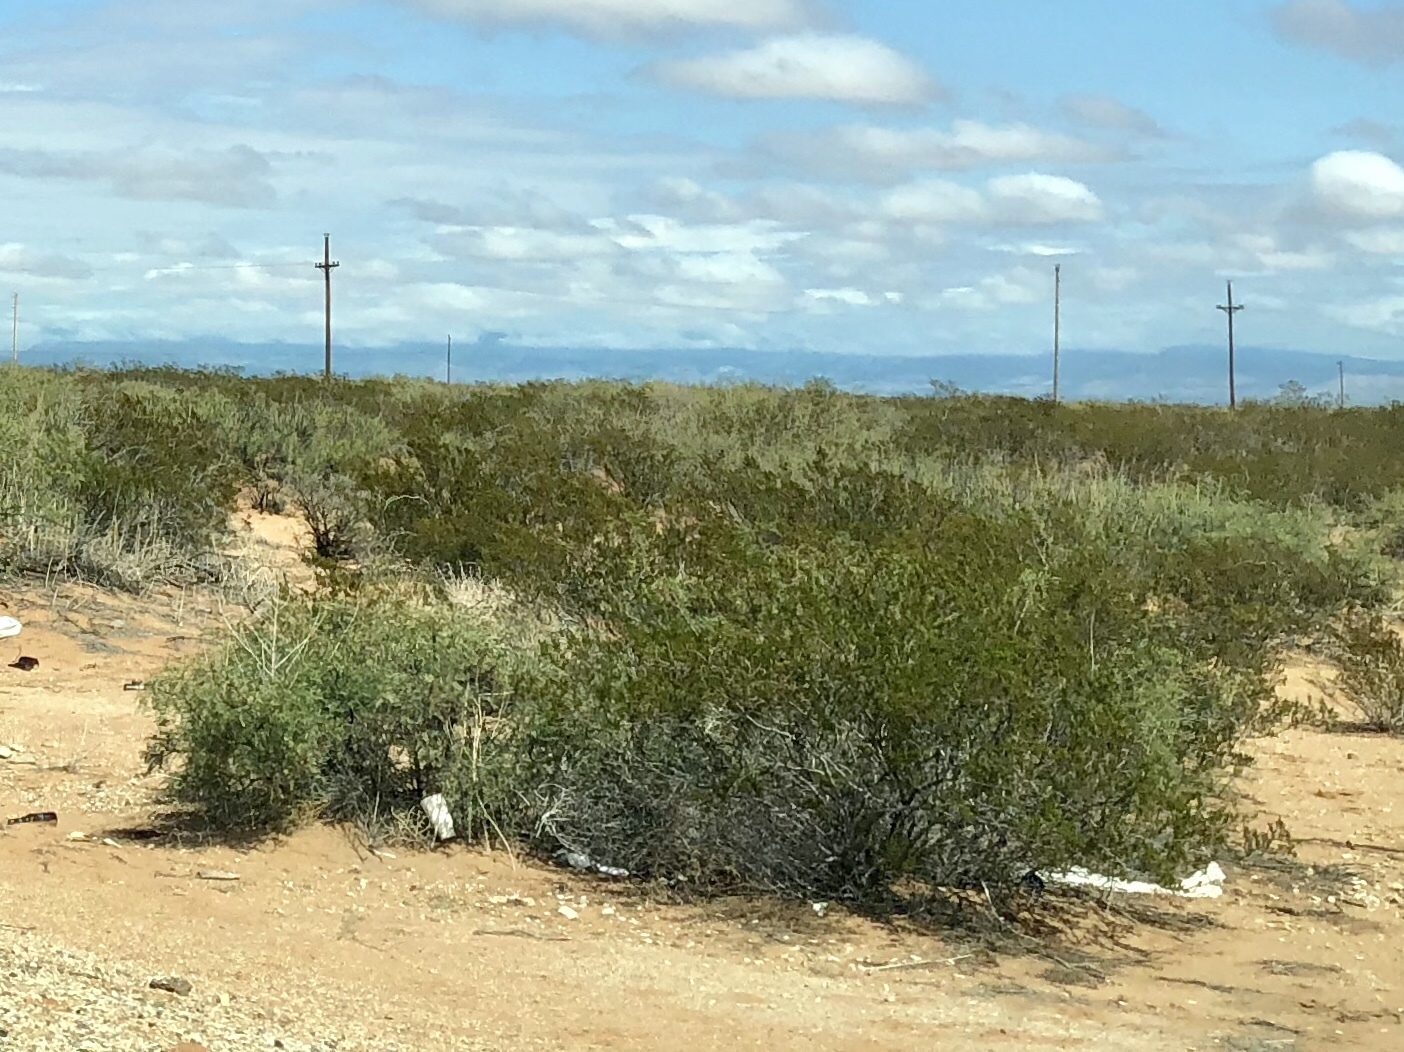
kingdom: Plantae
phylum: Tracheophyta
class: Magnoliopsida
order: Zygophyllales
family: Zygophyllaceae
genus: Larrea
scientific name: Larrea tridentata
